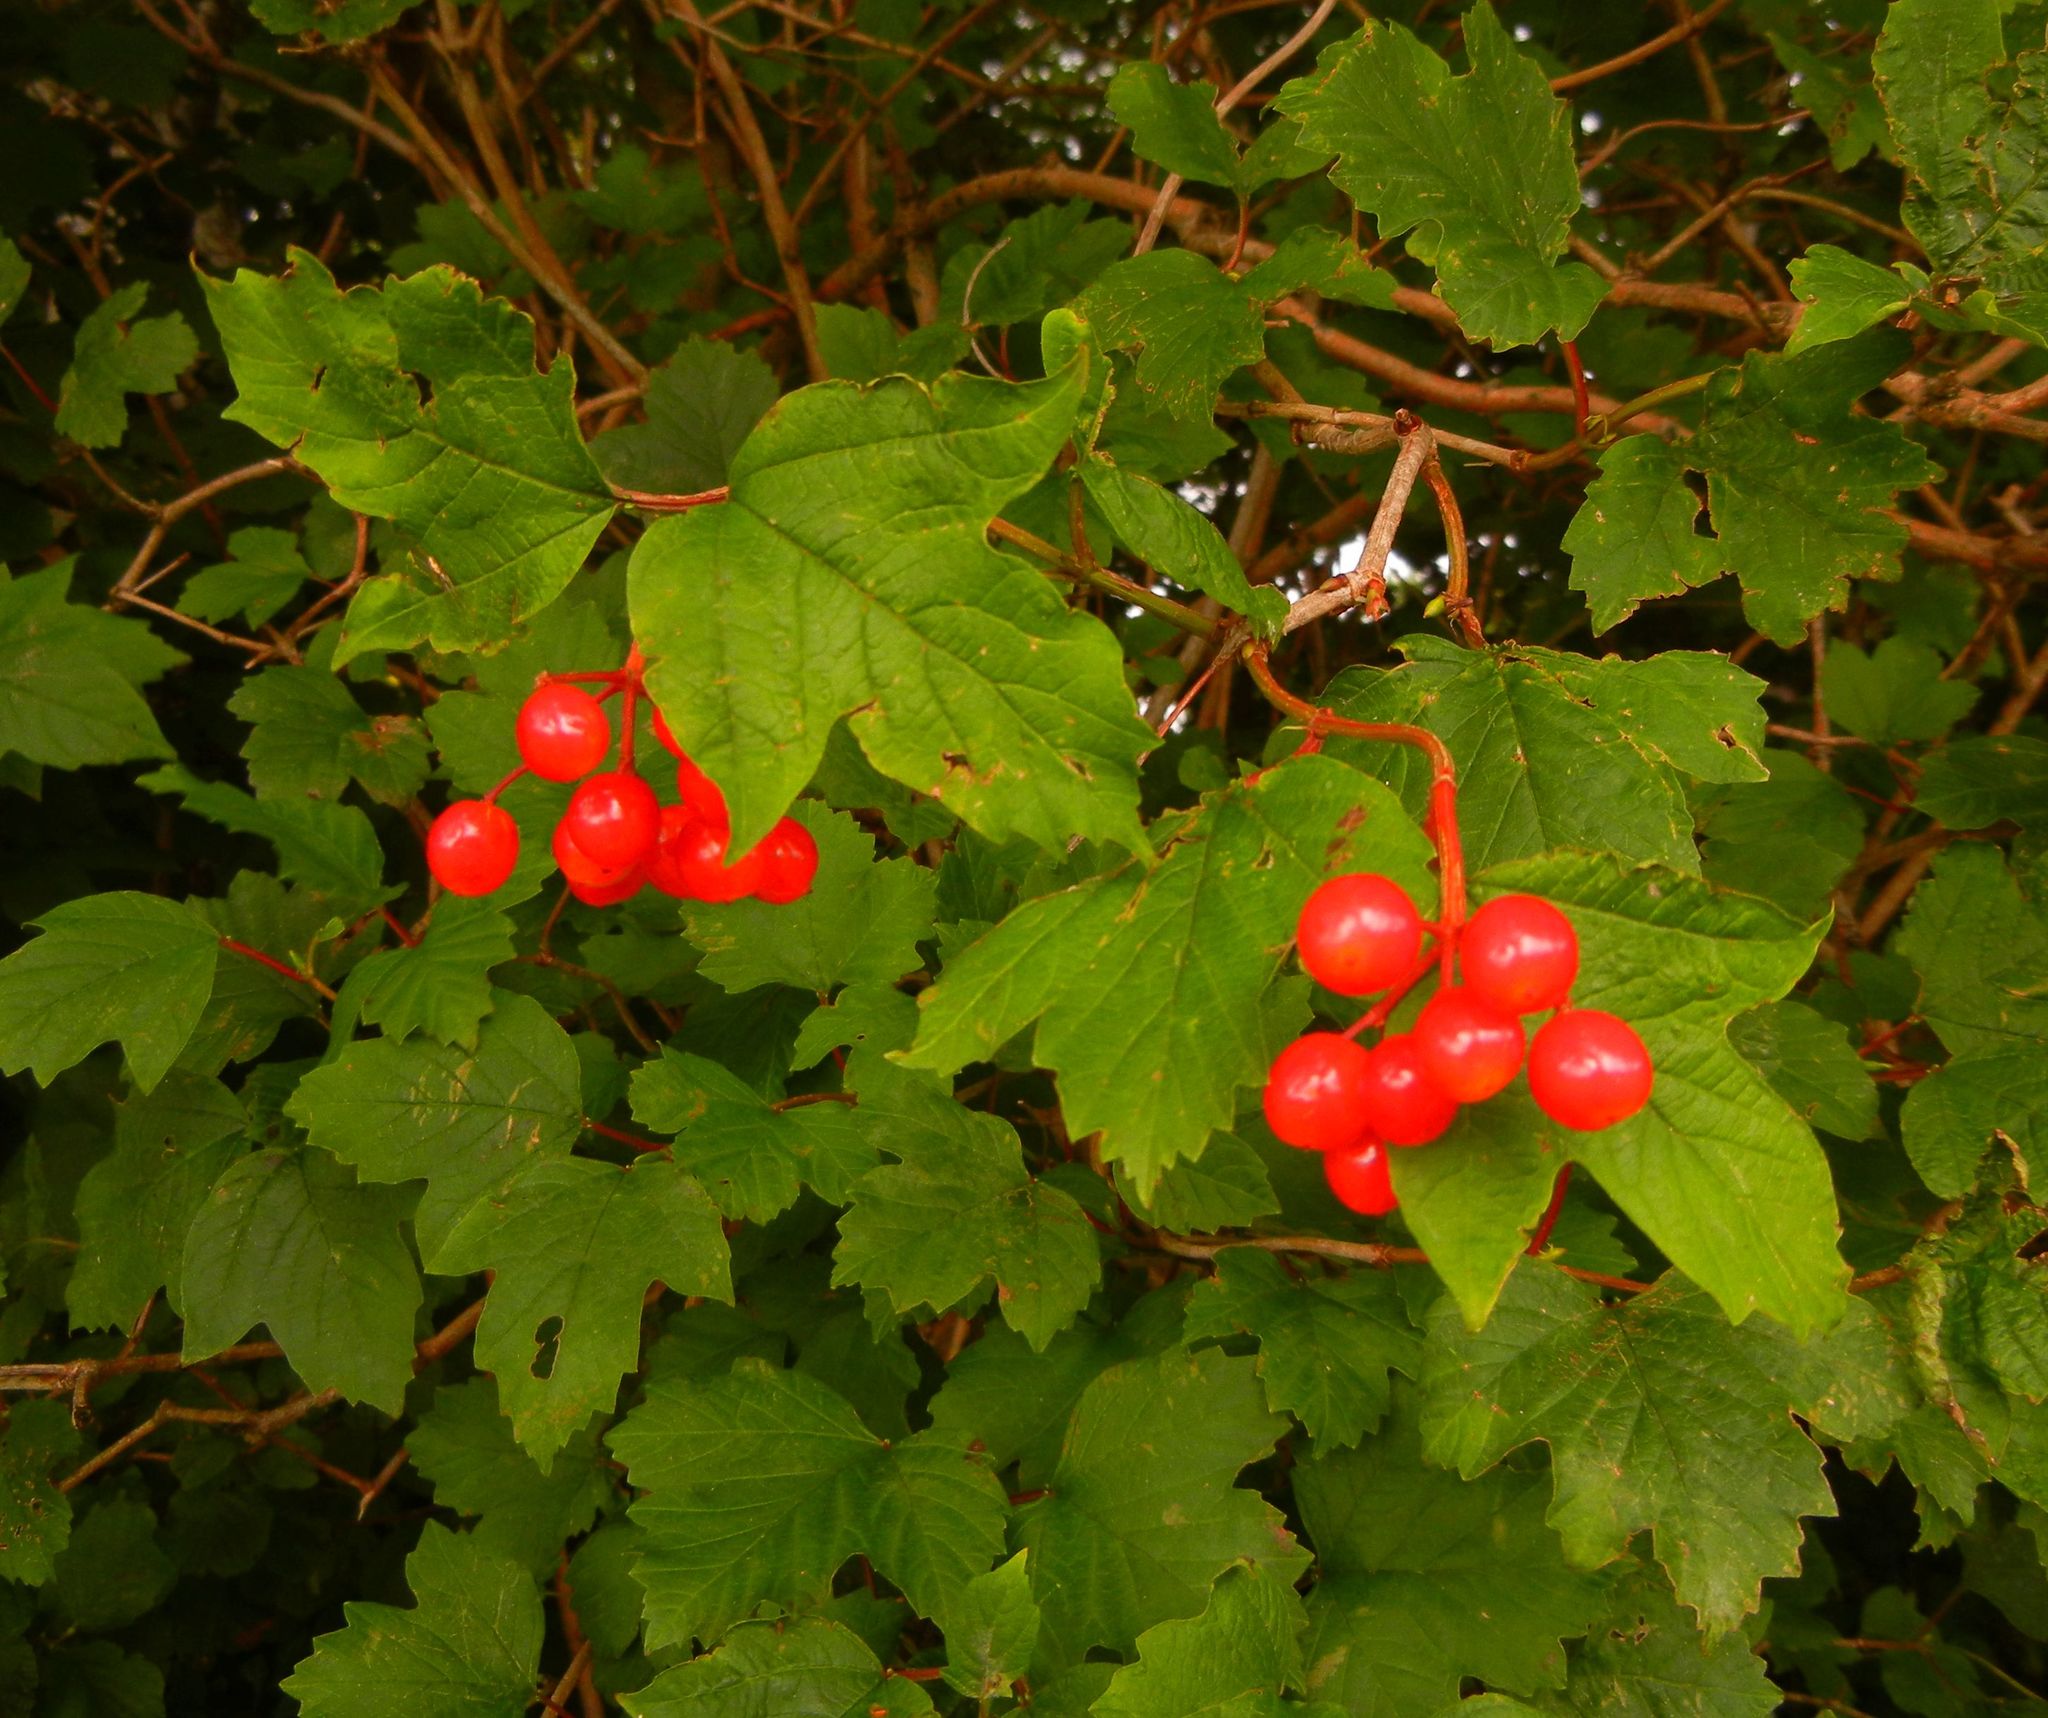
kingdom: Plantae
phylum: Tracheophyta
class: Magnoliopsida
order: Dipsacales
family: Viburnaceae
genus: Viburnum
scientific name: Viburnum opulus
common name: Guelder-rose
